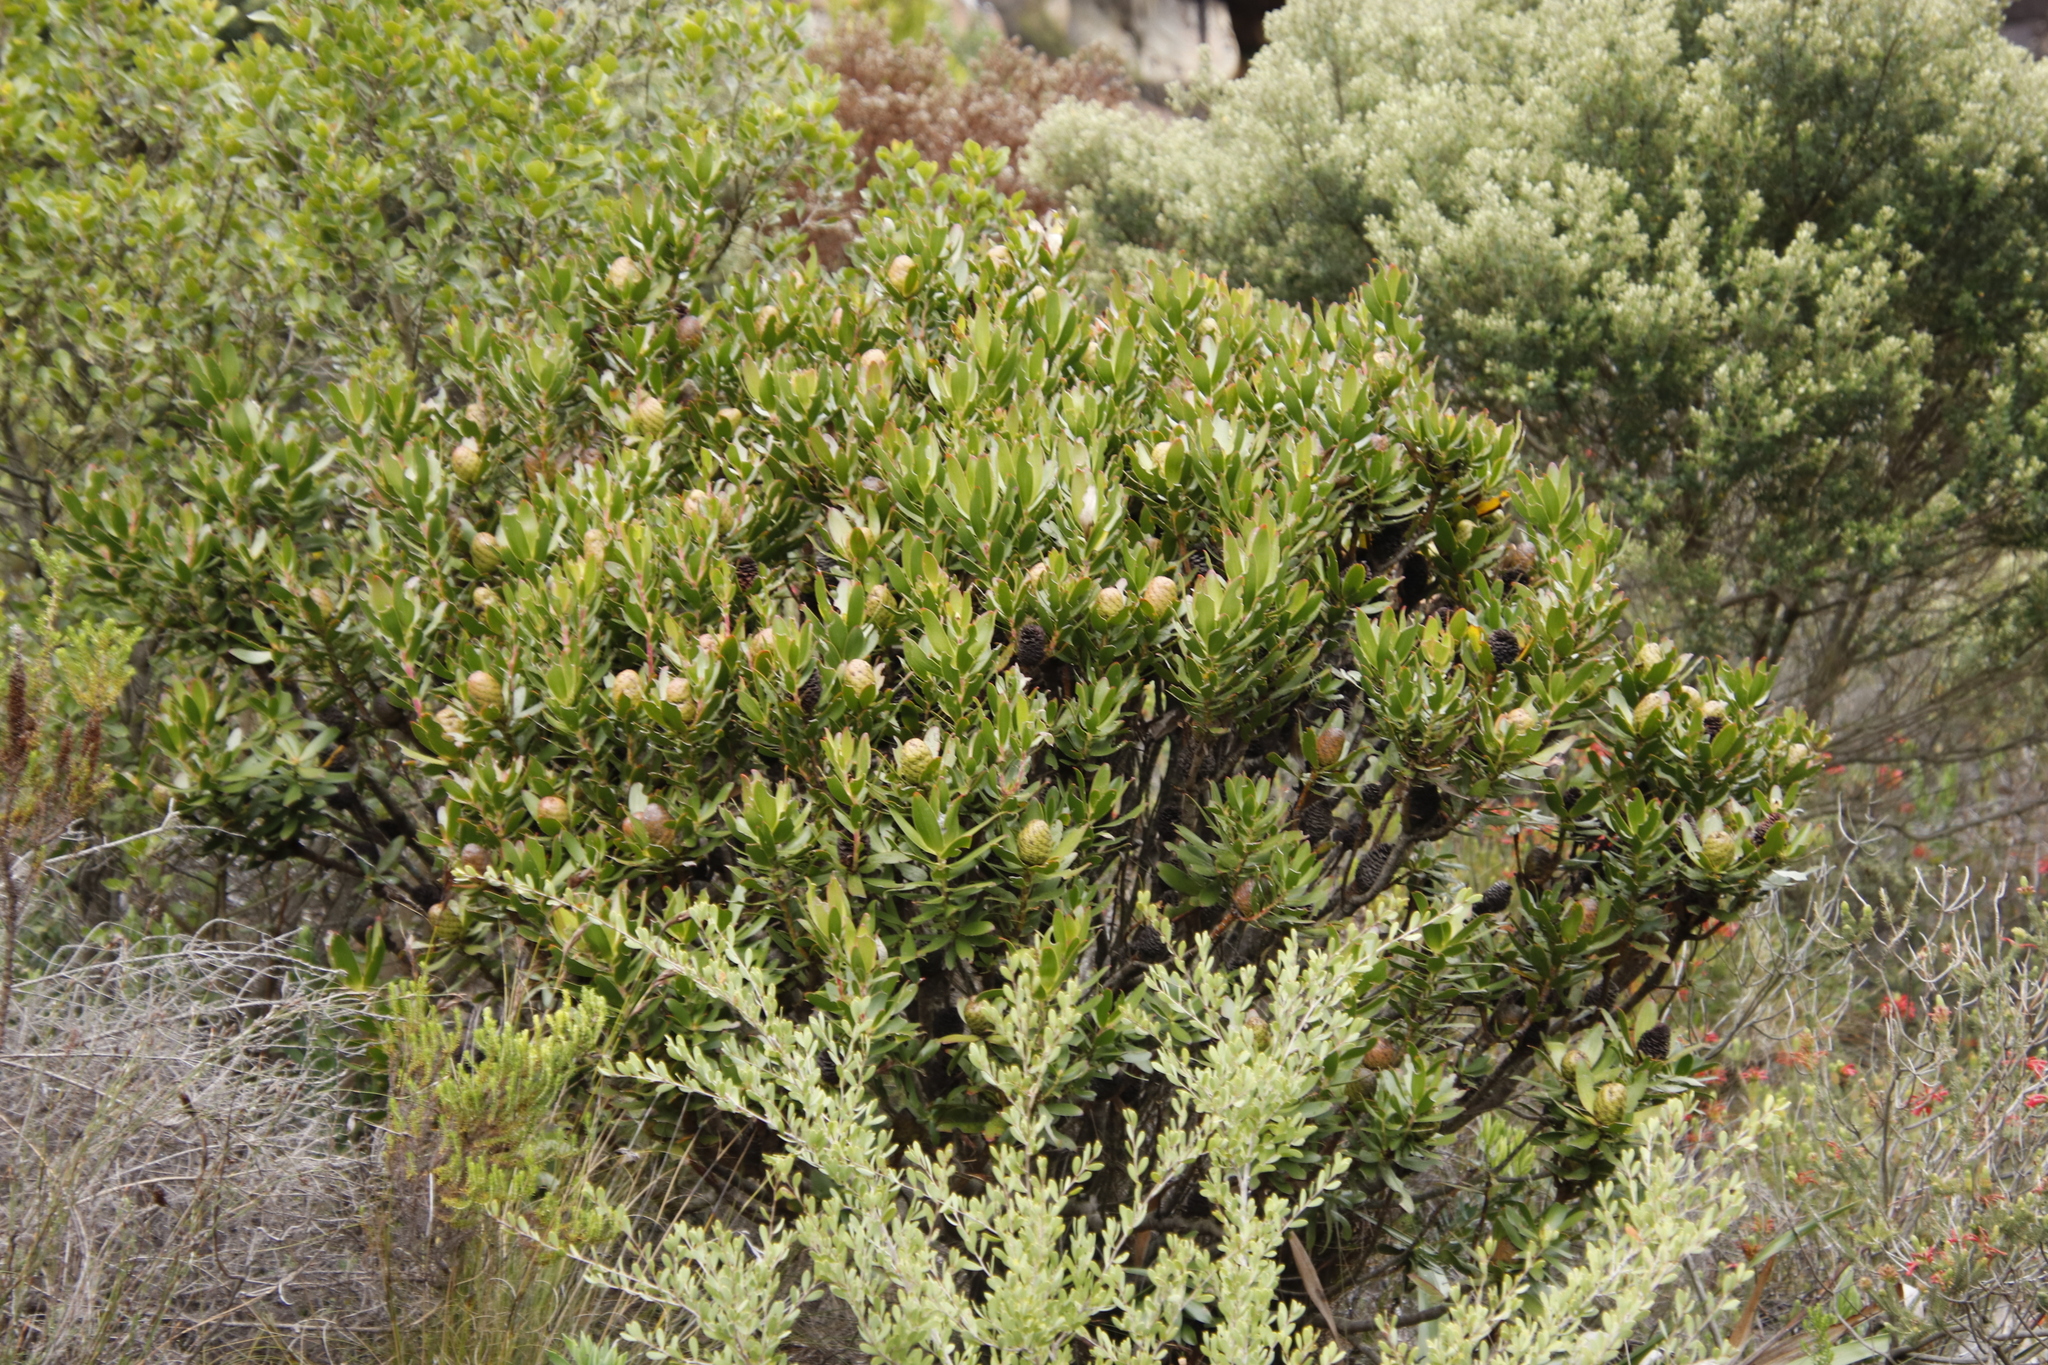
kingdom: Plantae
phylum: Tracheophyta
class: Magnoliopsida
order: Proteales
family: Proteaceae
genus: Leucadendron
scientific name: Leucadendron strobilinum
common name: Mountain rose
